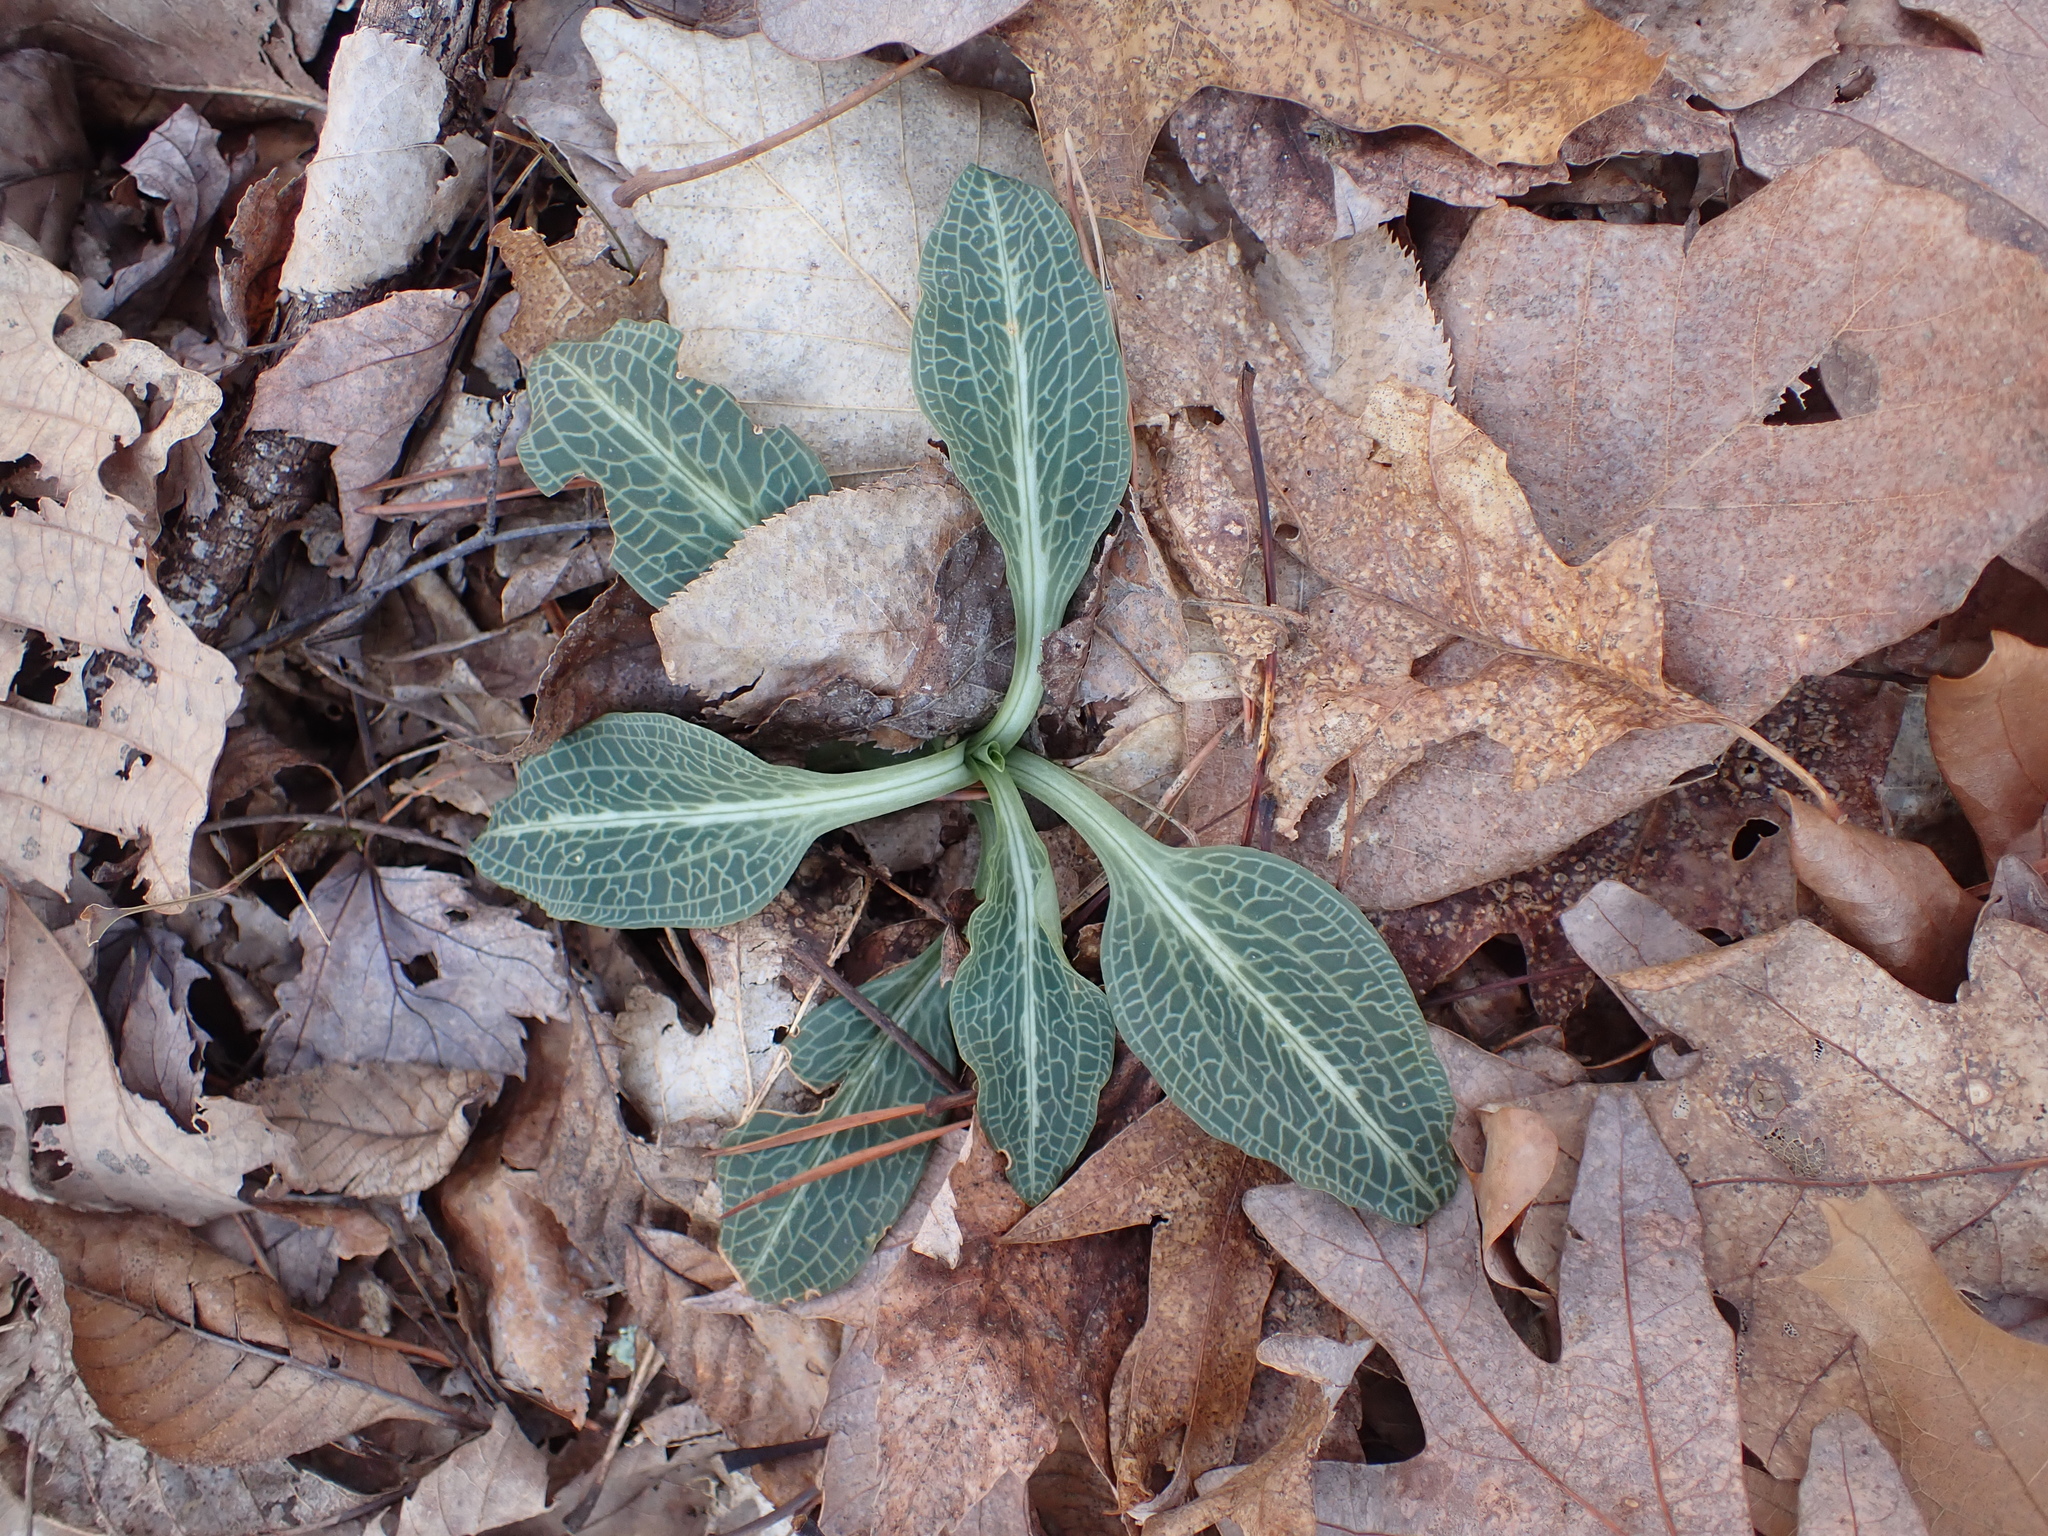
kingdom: Plantae
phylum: Tracheophyta
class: Liliopsida
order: Asparagales
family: Orchidaceae
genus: Goodyera
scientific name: Goodyera pubescens
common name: Downy rattlesnake-plantain
